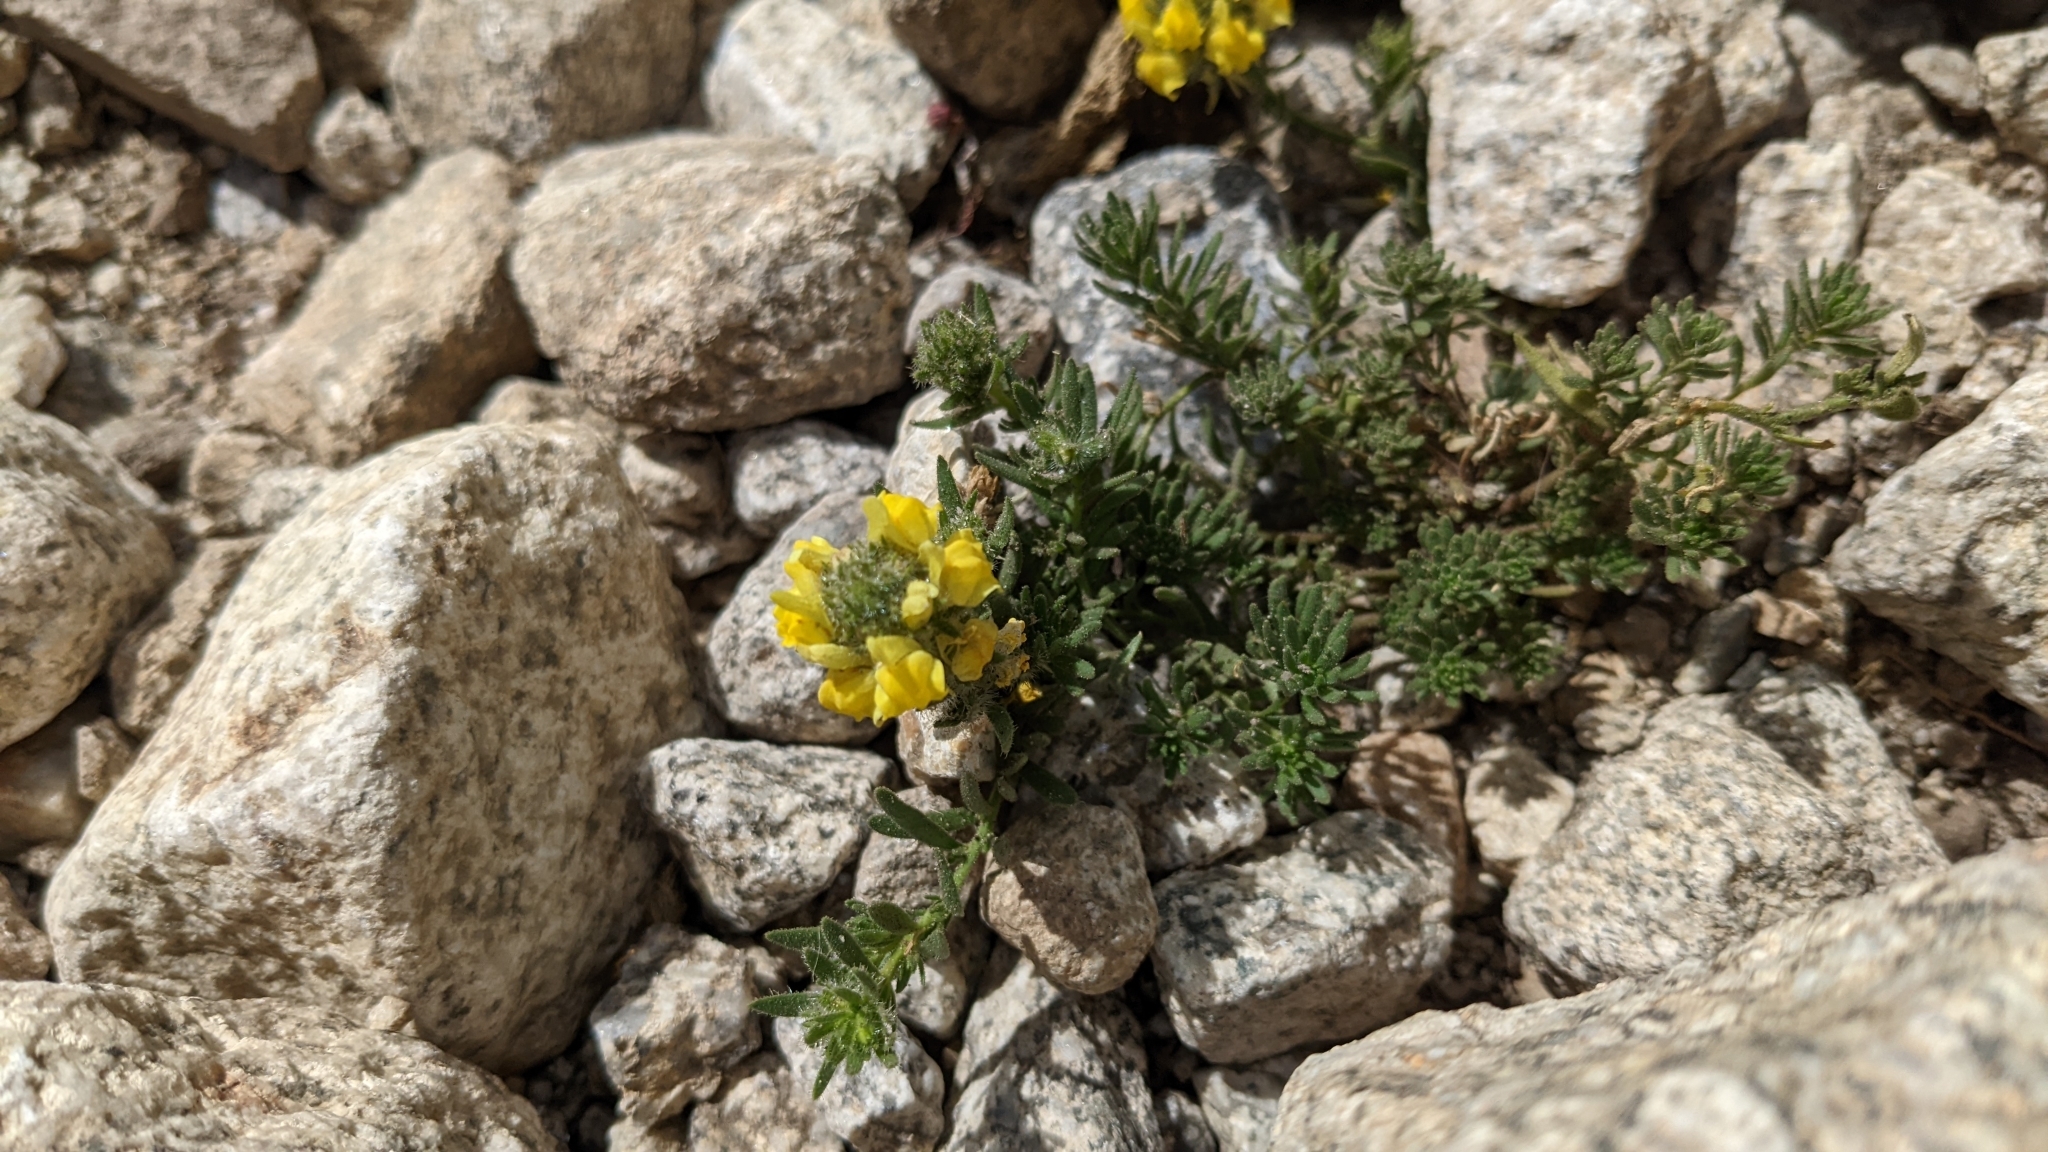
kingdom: Plantae
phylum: Tracheophyta
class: Magnoliopsida
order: Lamiales
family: Plantaginaceae
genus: Linaria
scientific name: Linaria saxatilis
